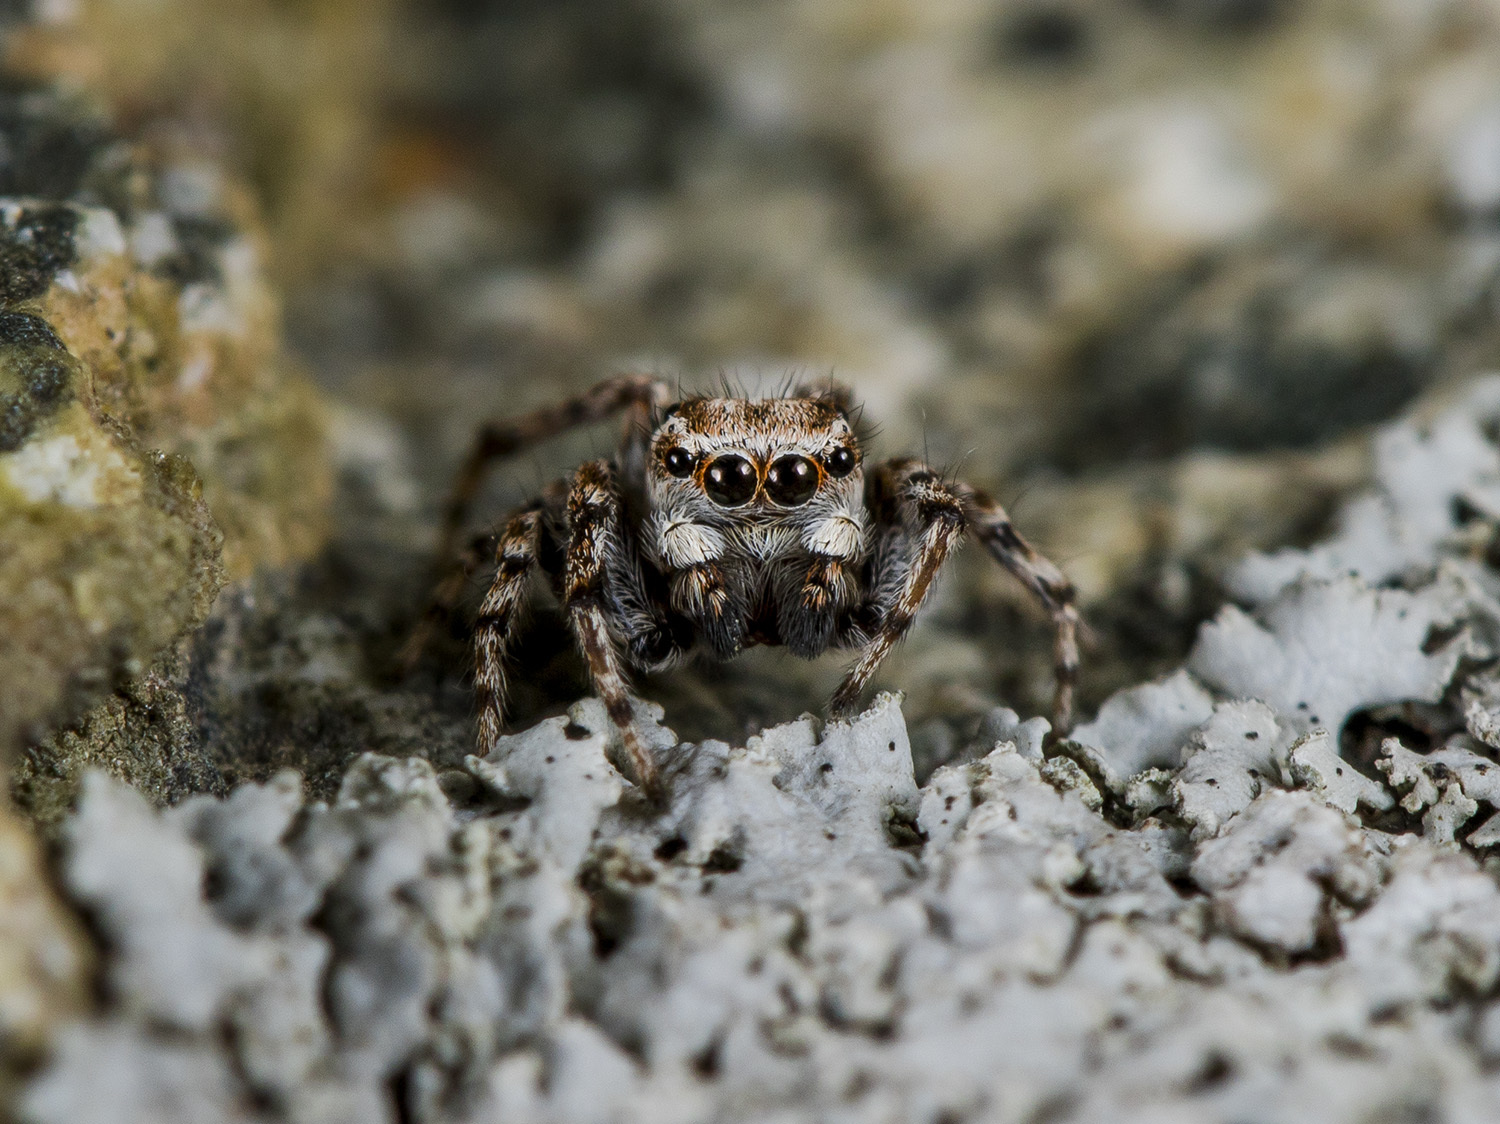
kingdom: Animalia
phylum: Arthropoda
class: Arachnida
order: Araneae
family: Salticidae
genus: Attulus
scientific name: Attulus avocator
